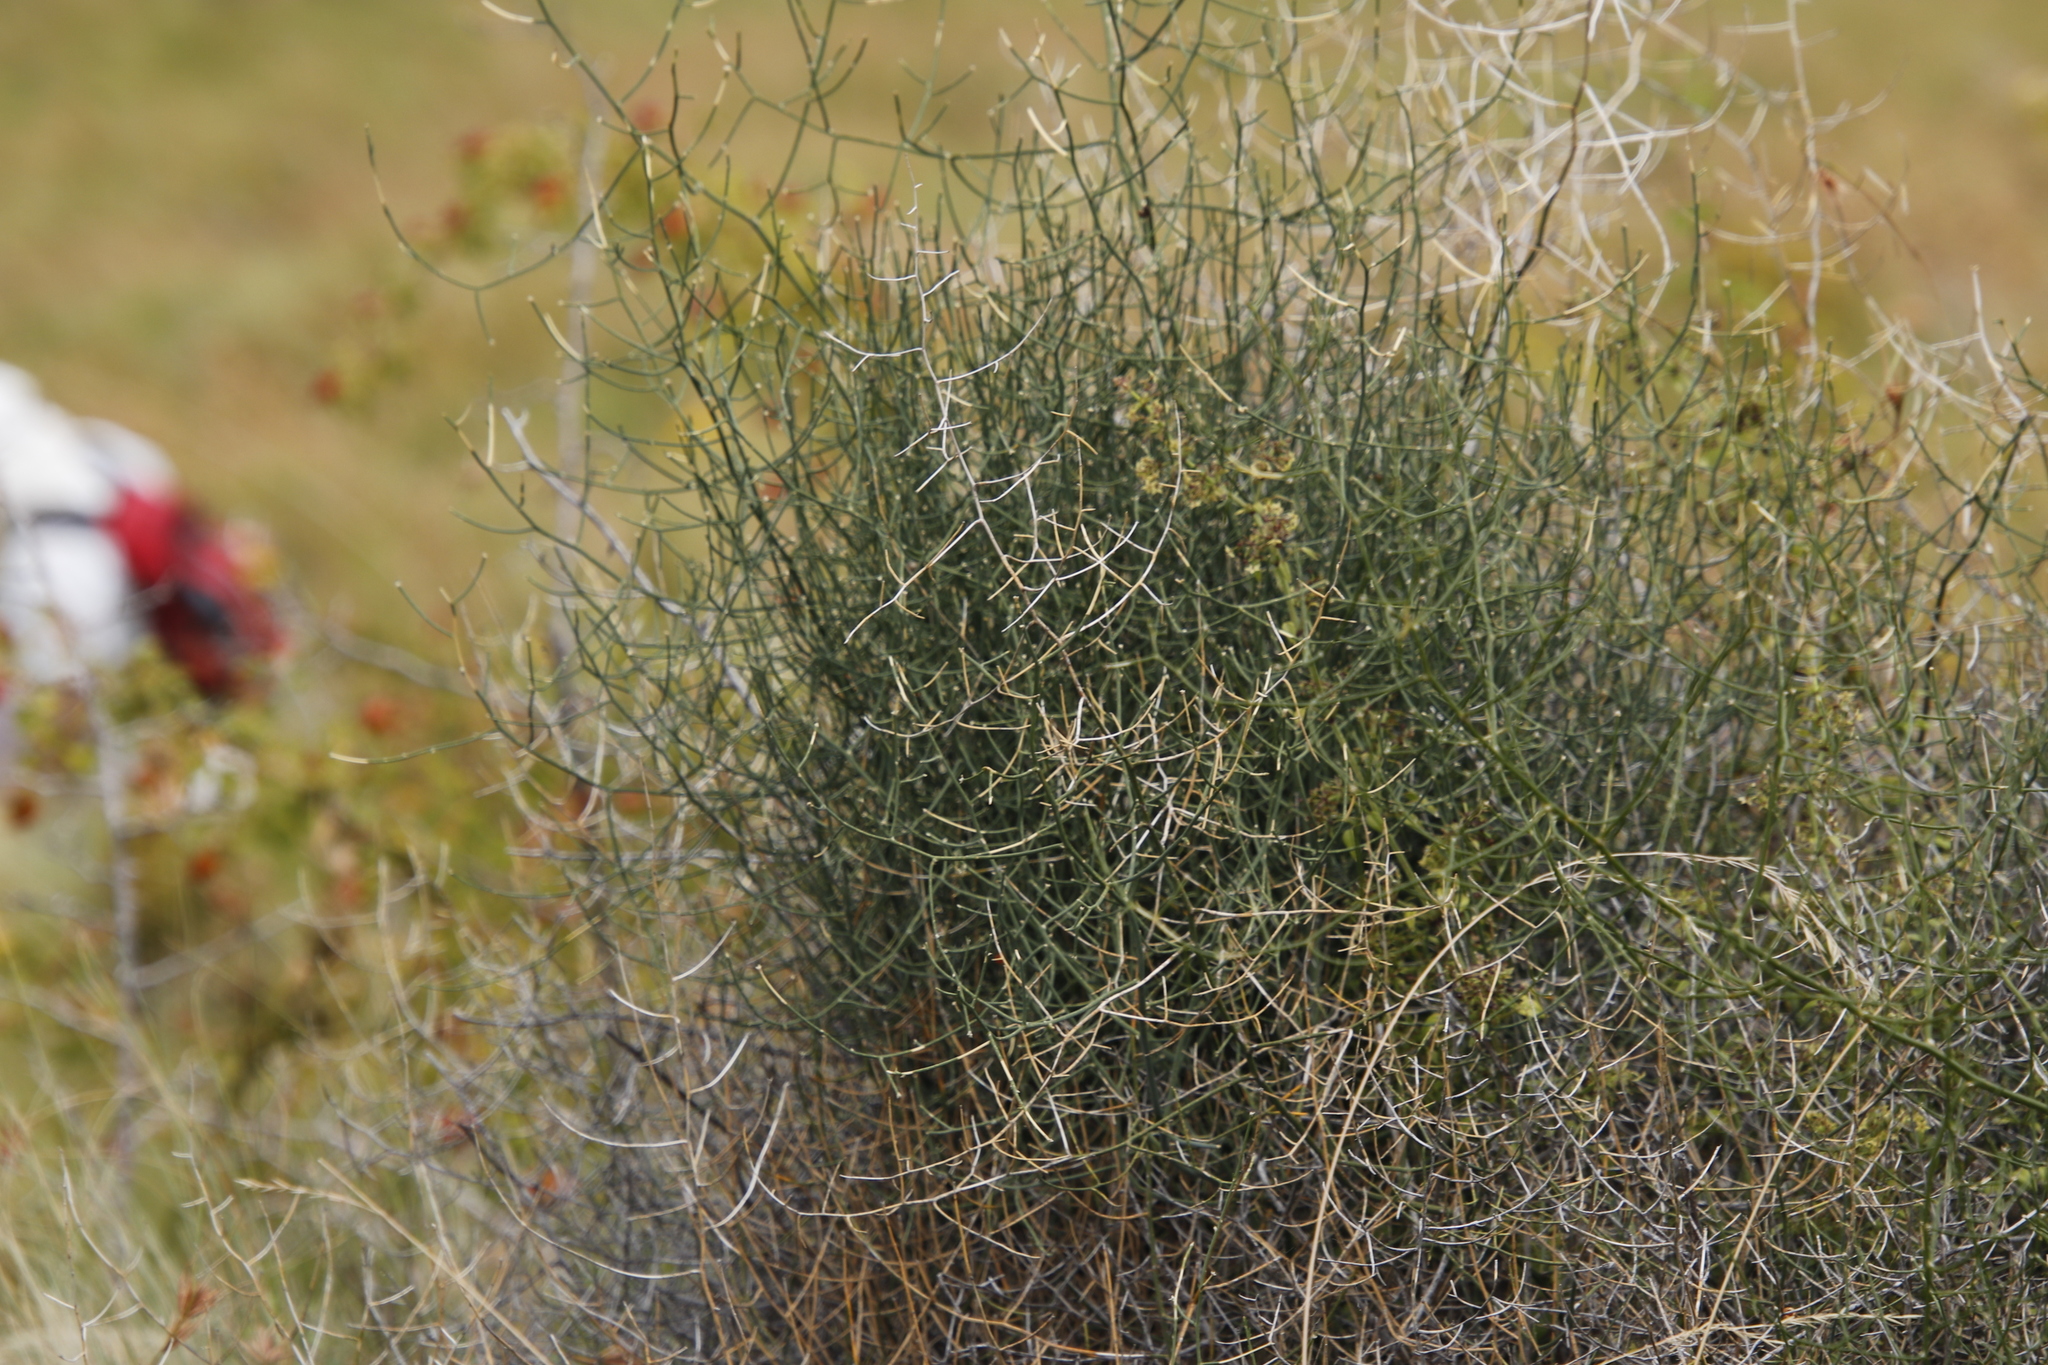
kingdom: Plantae
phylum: Tracheophyta
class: Liliopsida
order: Asparagales
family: Asparagaceae
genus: Asparagus
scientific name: Asparagus denudatus
